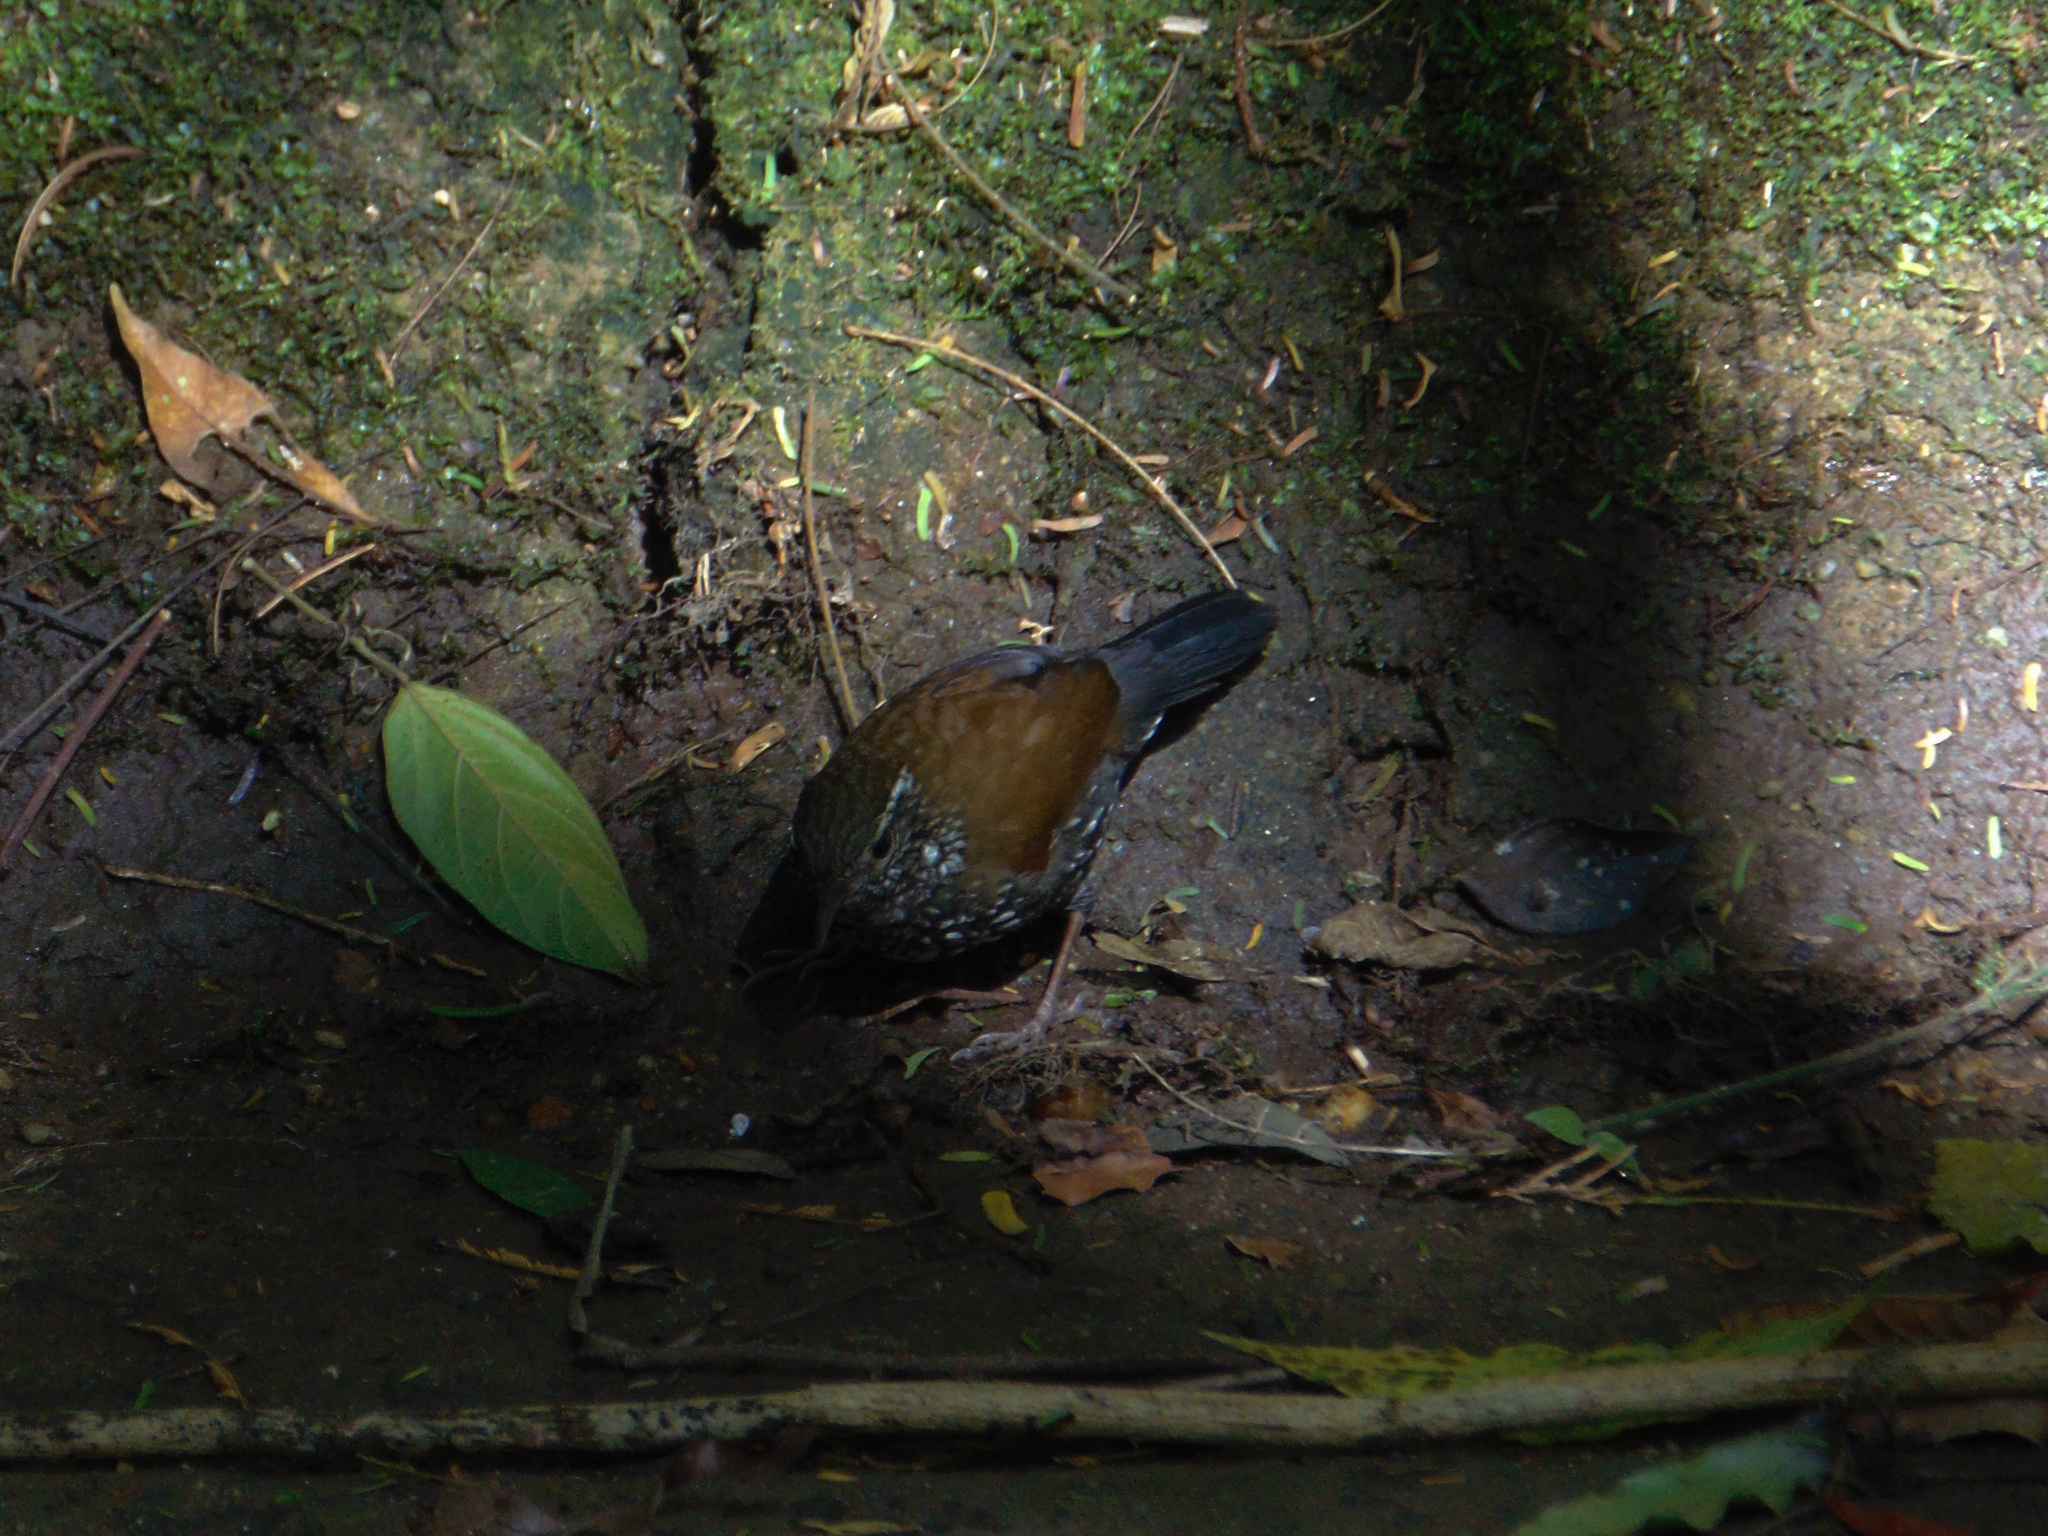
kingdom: Animalia
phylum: Chordata
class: Aves
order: Passeriformes
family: Furnariidae
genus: Lochmias
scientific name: Lochmias nematura
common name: Sharp-tailed streamcreeper
